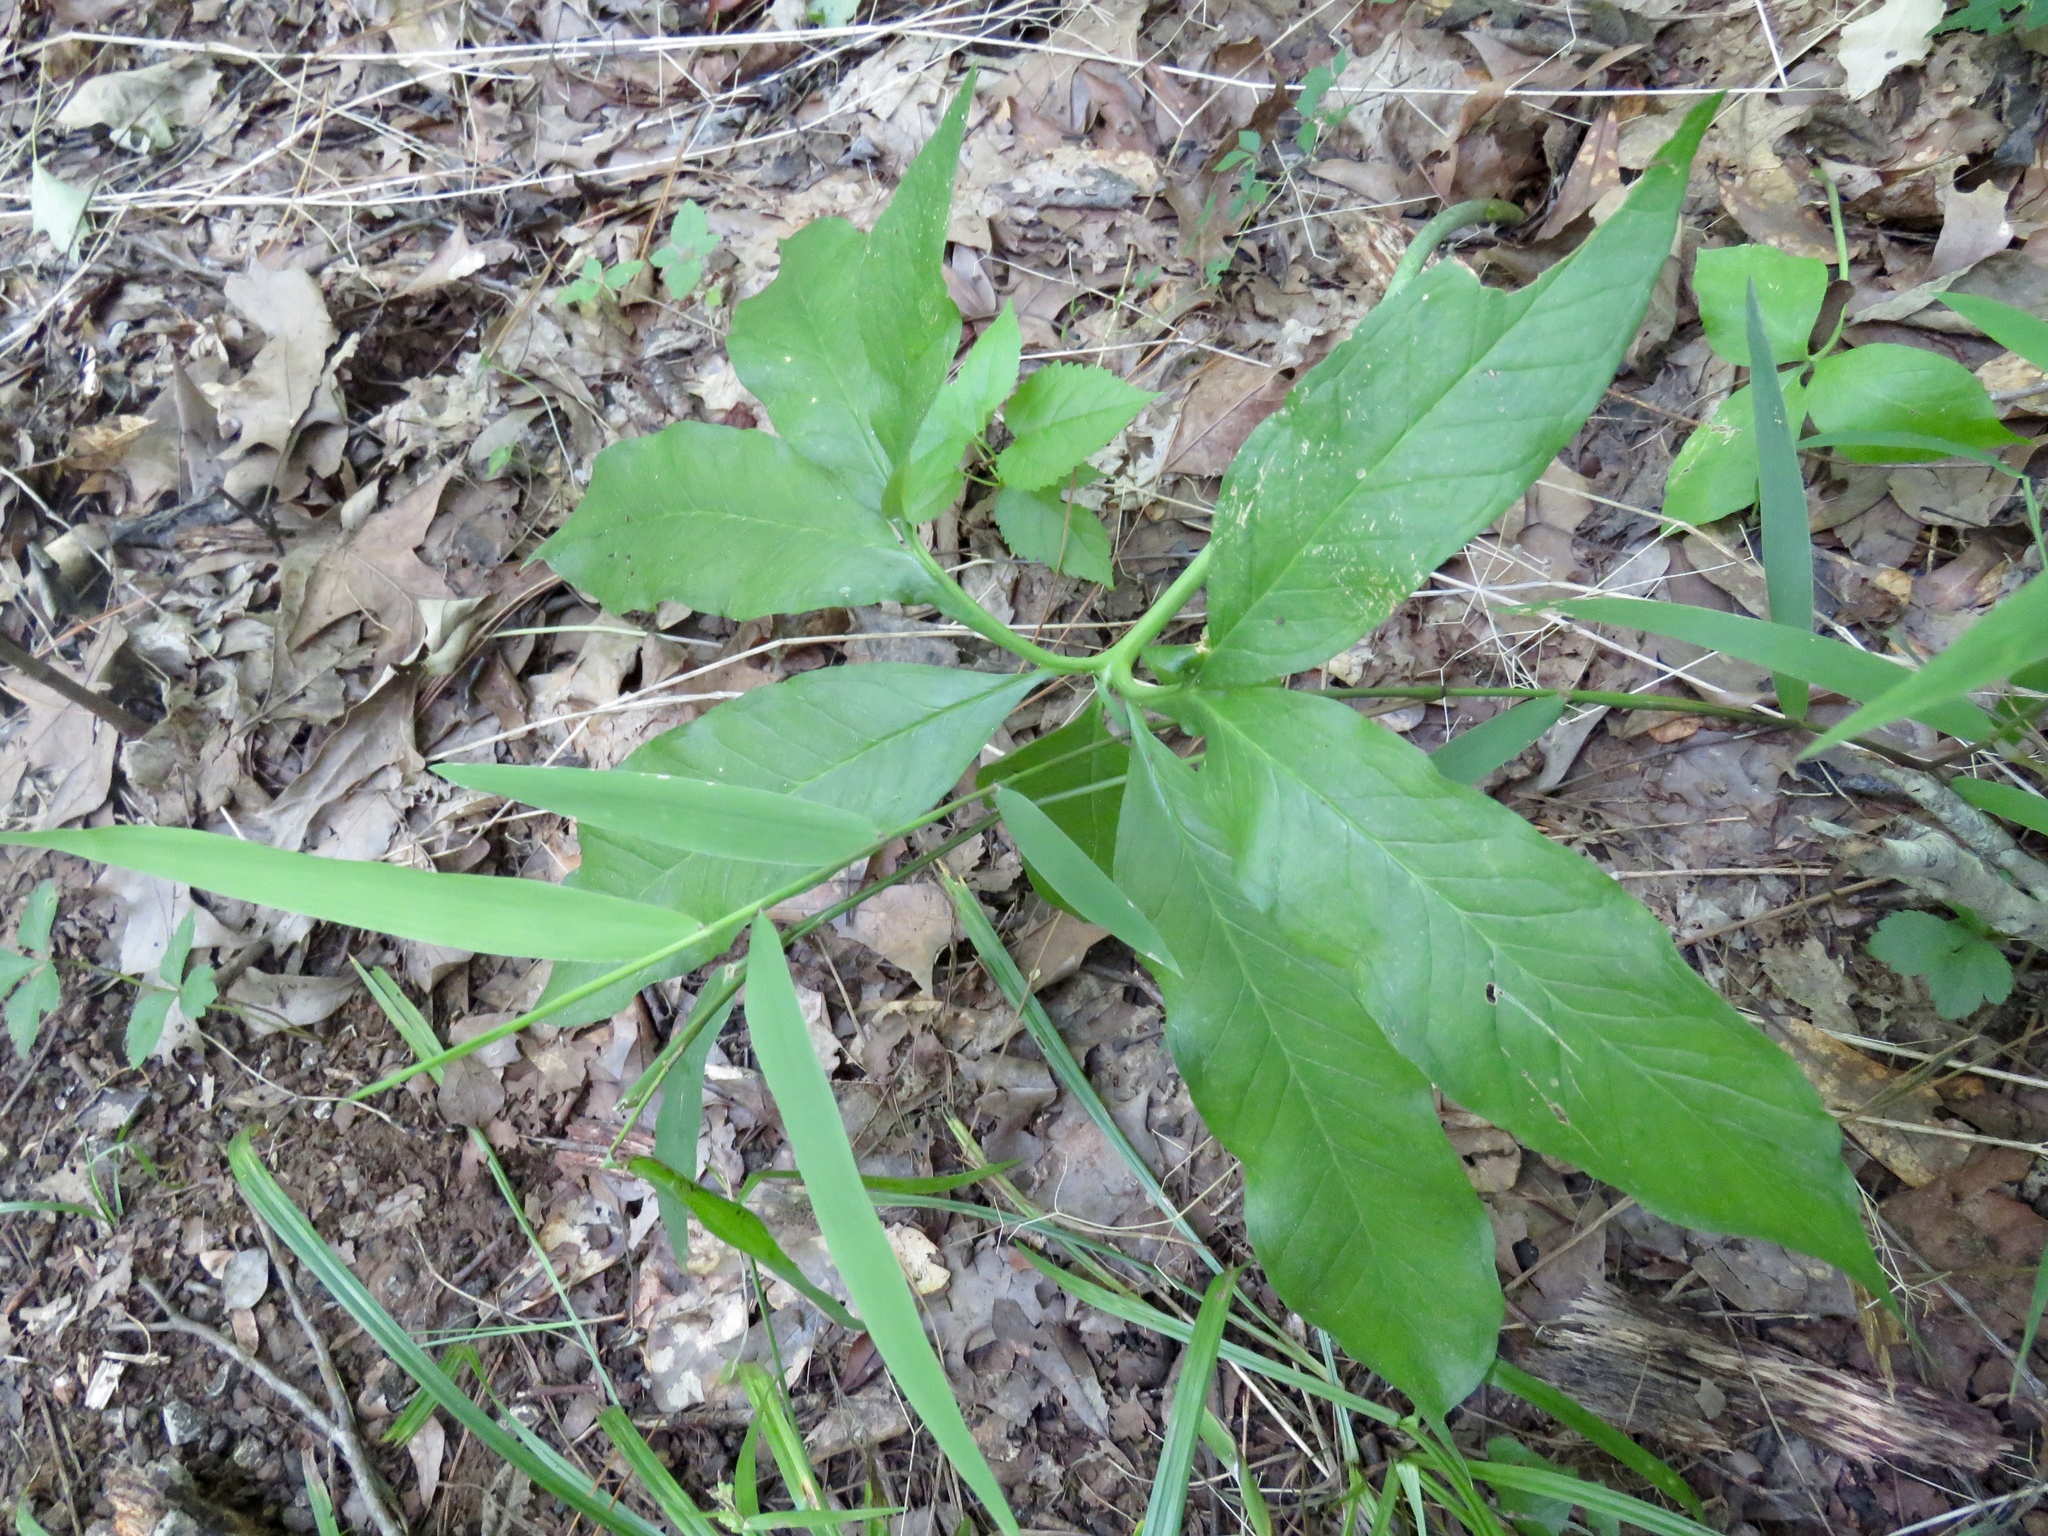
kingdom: Plantae
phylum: Tracheophyta
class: Liliopsida
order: Alismatales
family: Araceae
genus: Arisaema
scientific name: Arisaema dracontium
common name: Dragon-arum
